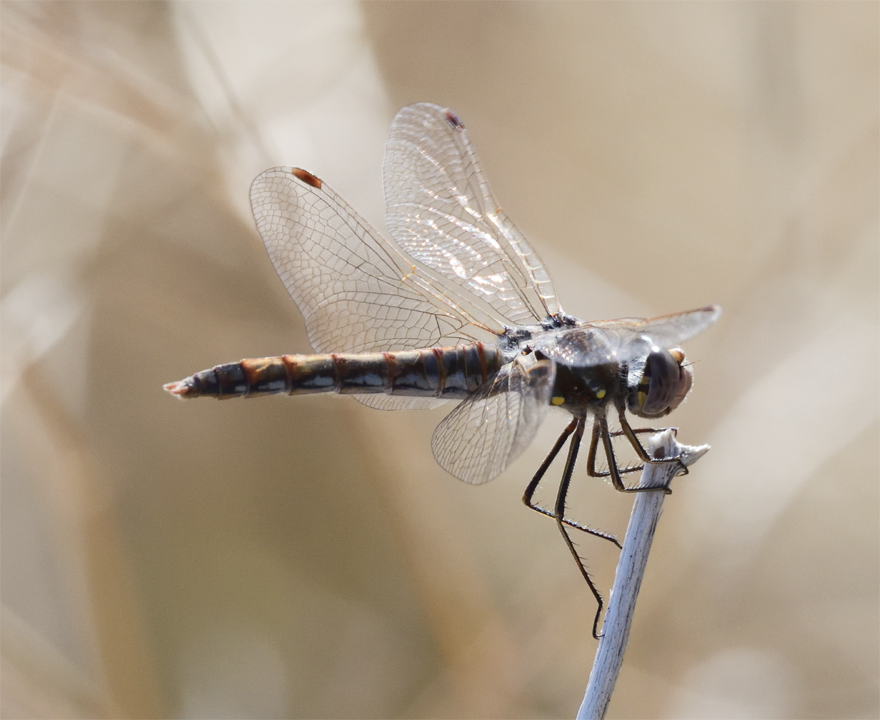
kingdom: Animalia
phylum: Arthropoda
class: Insecta
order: Odonata
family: Libellulidae
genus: Sympetrum
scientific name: Sympetrum corruptum
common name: Variegated meadowhawk
